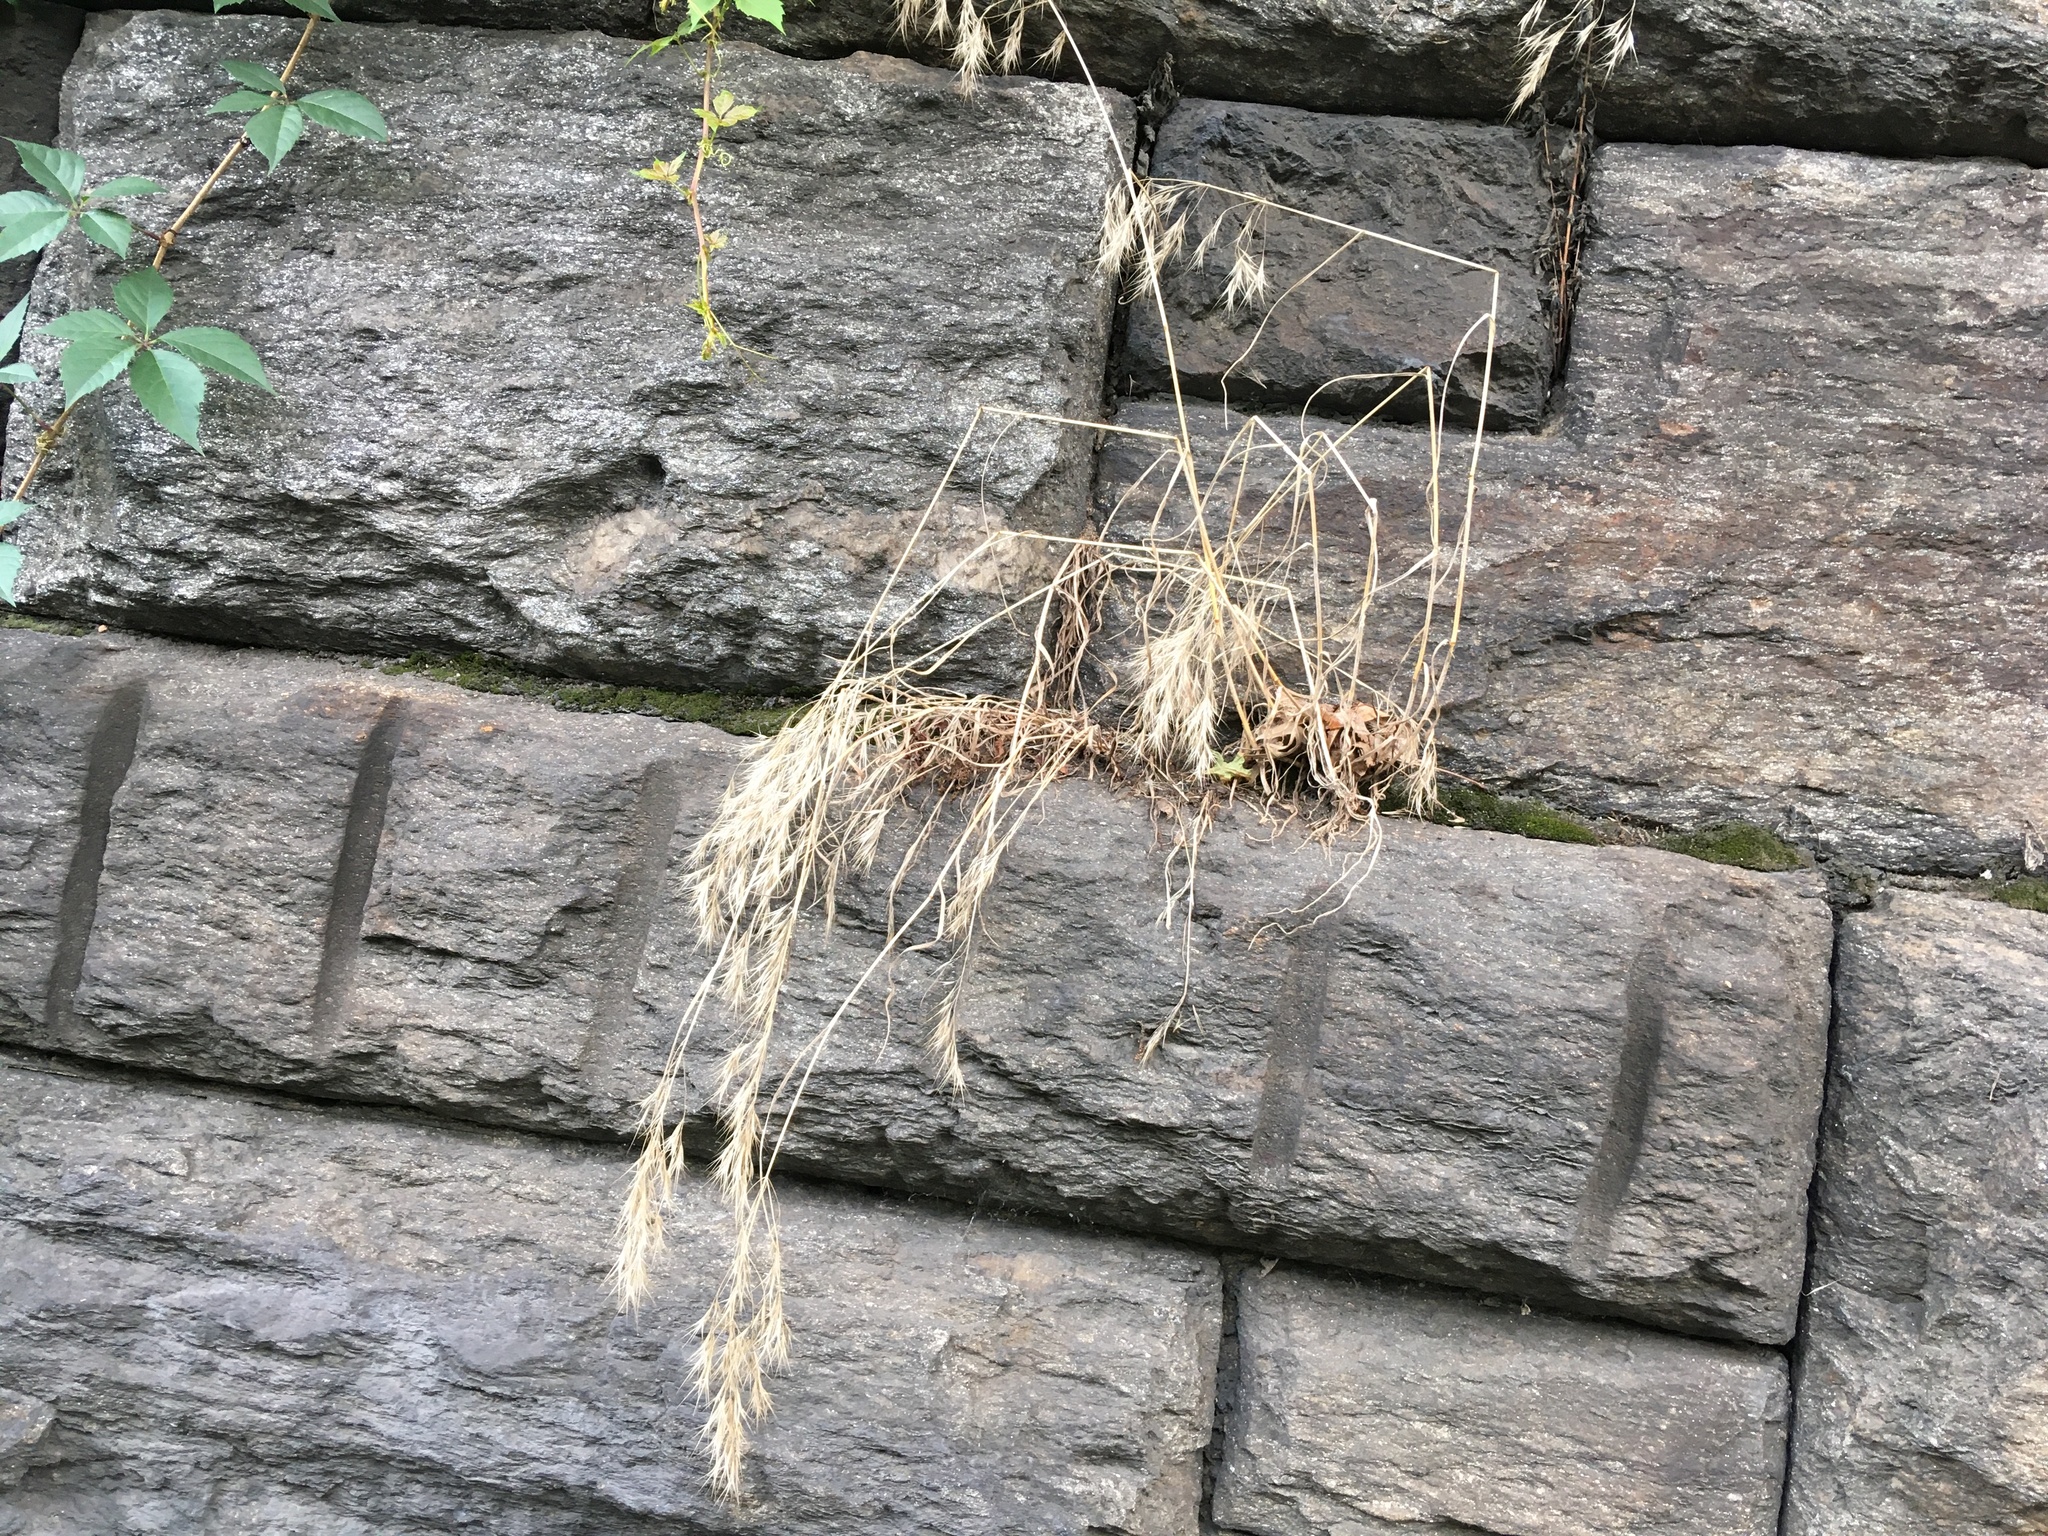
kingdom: Plantae
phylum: Tracheophyta
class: Liliopsida
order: Poales
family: Poaceae
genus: Bromus
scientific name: Bromus tectorum
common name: Cheatgrass
